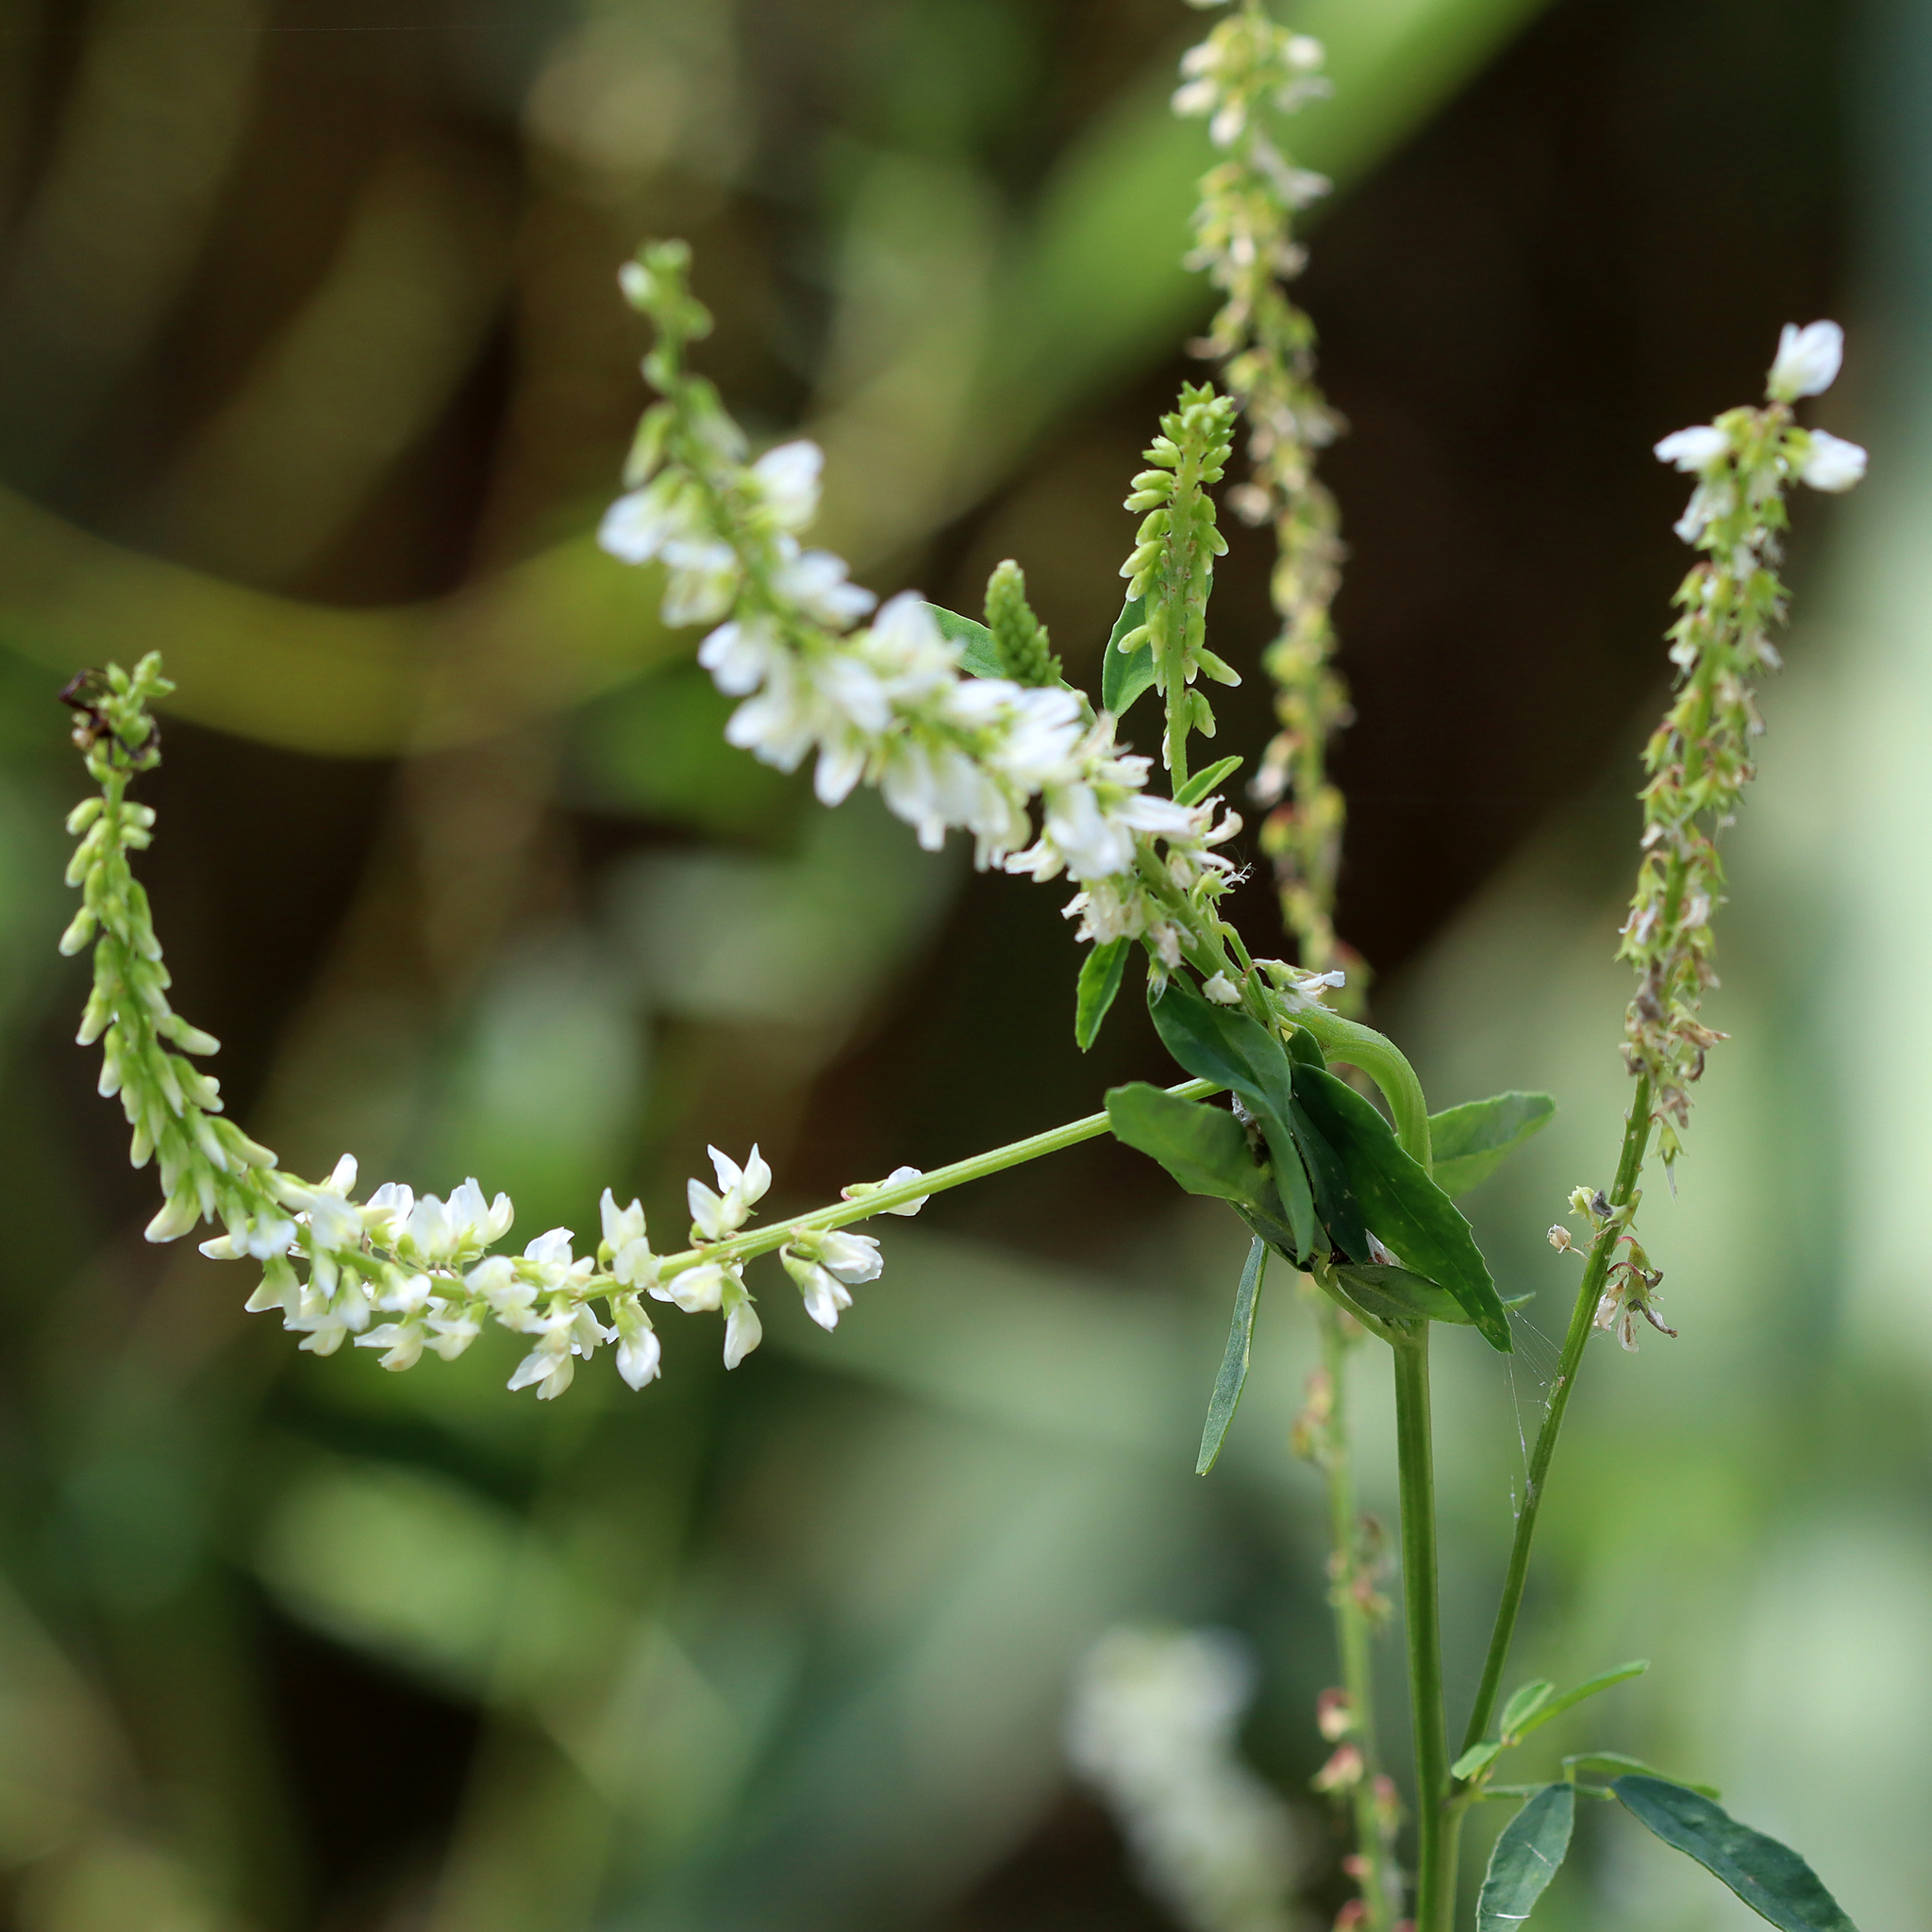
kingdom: Plantae
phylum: Tracheophyta
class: Magnoliopsida
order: Fabales
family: Fabaceae
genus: Melilotus
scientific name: Melilotus albus
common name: White melilot
